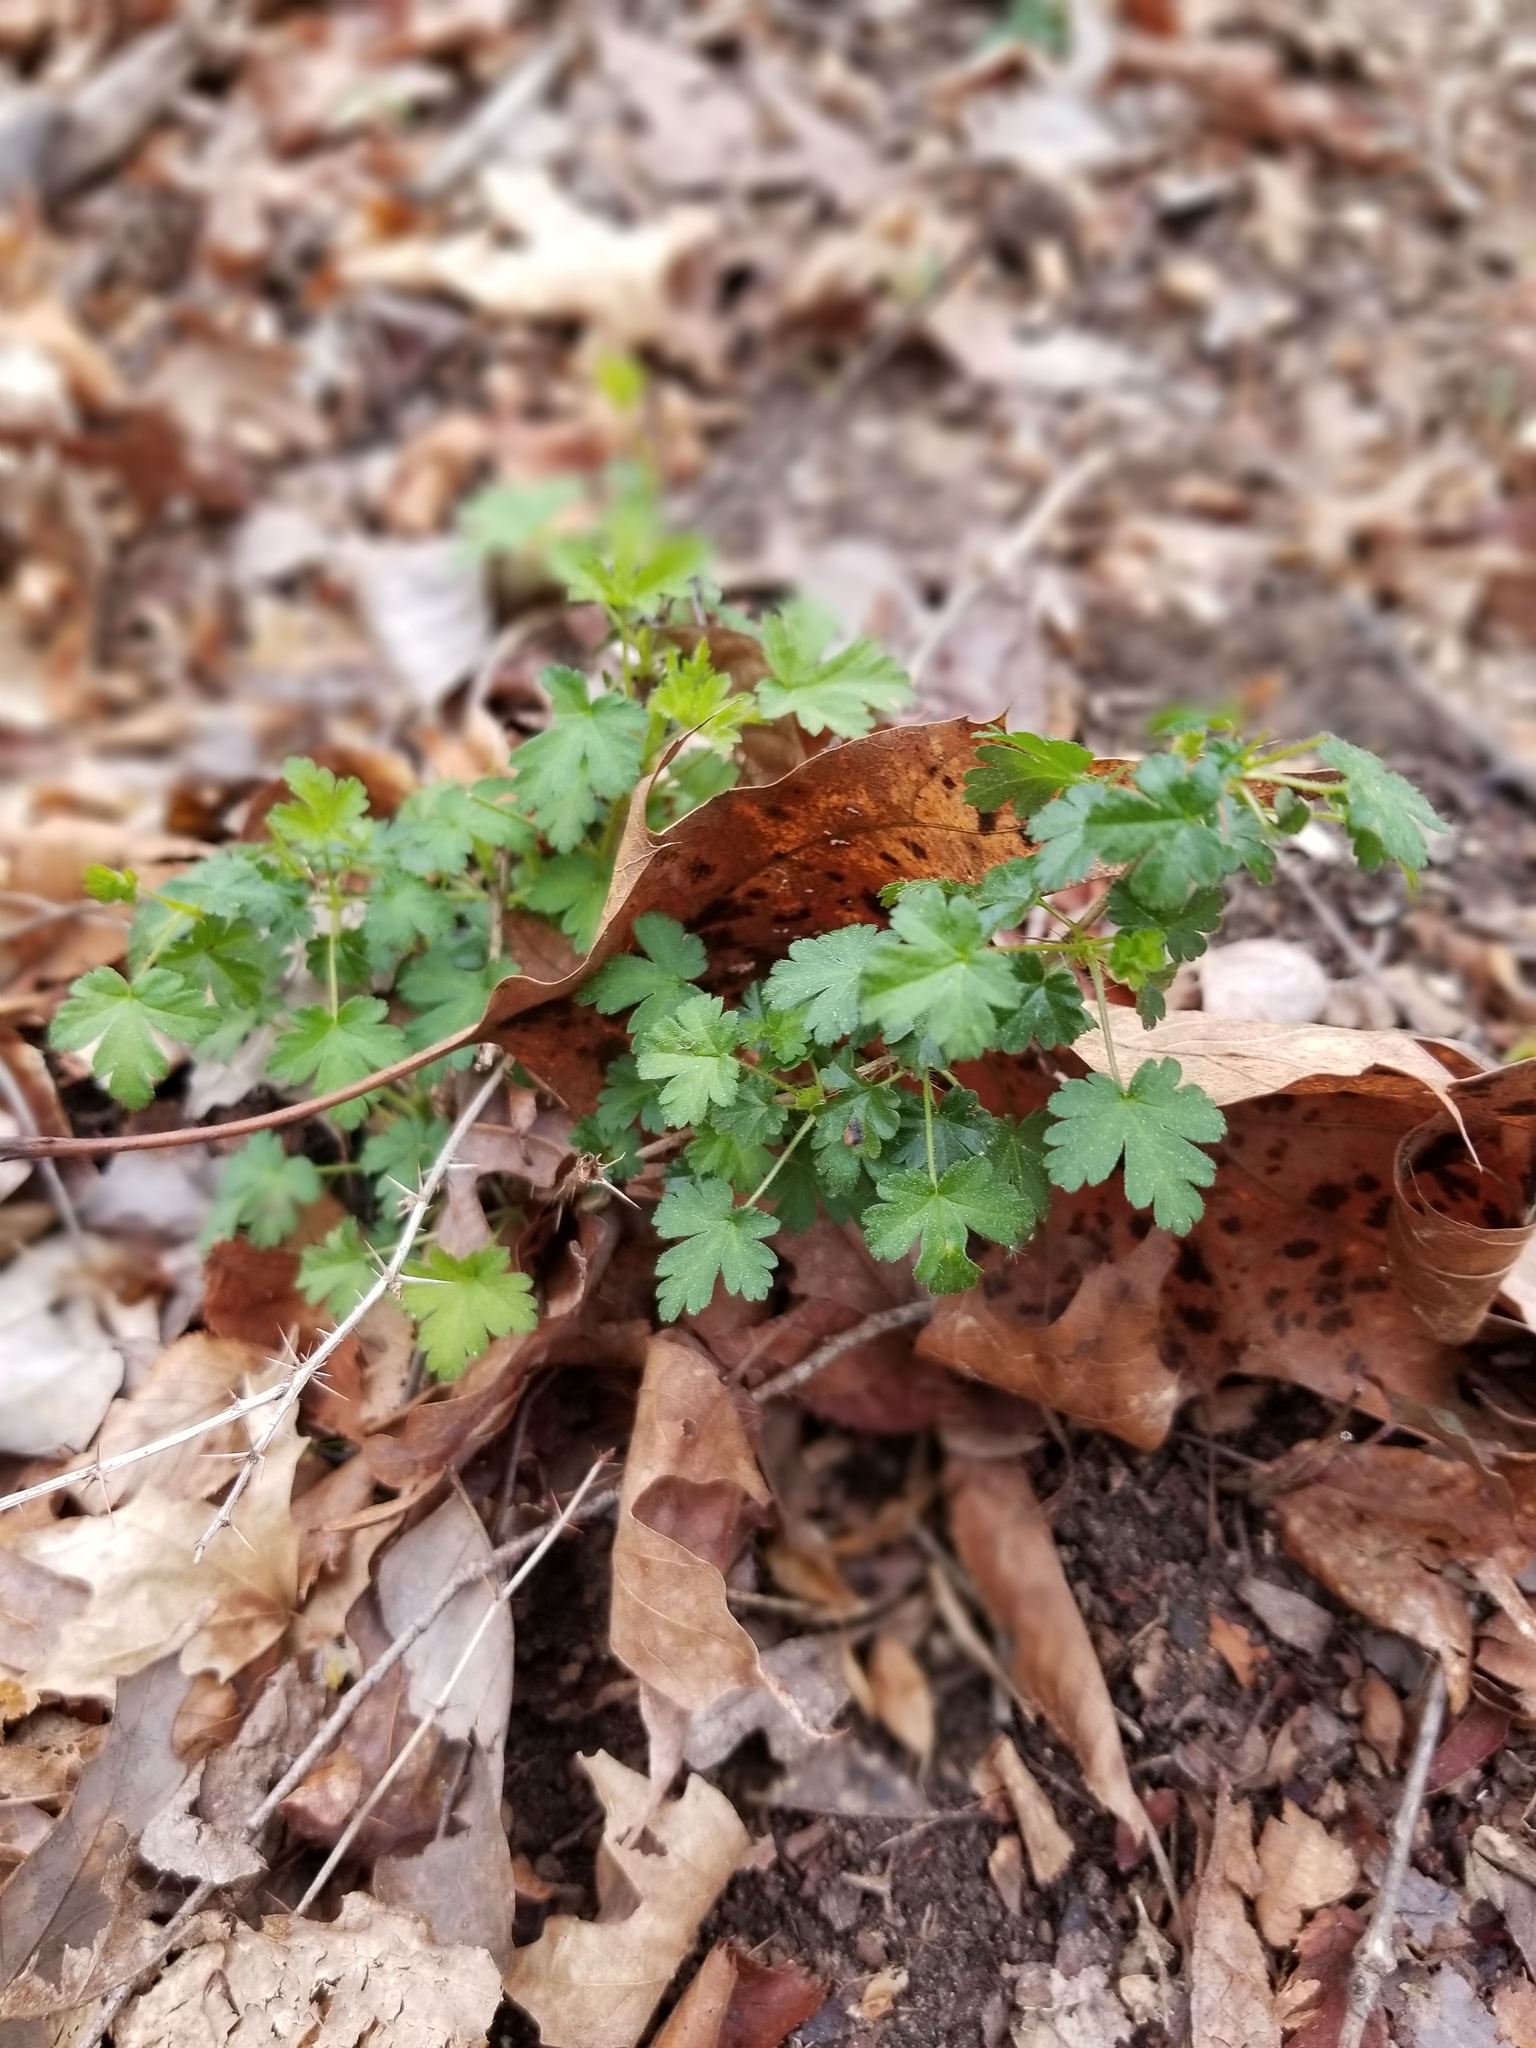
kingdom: Plantae
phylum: Tracheophyta
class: Magnoliopsida
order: Saxifragales
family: Grossulariaceae
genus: Ribes
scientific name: Ribes echinellum
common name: Miccosukee gooseberry
